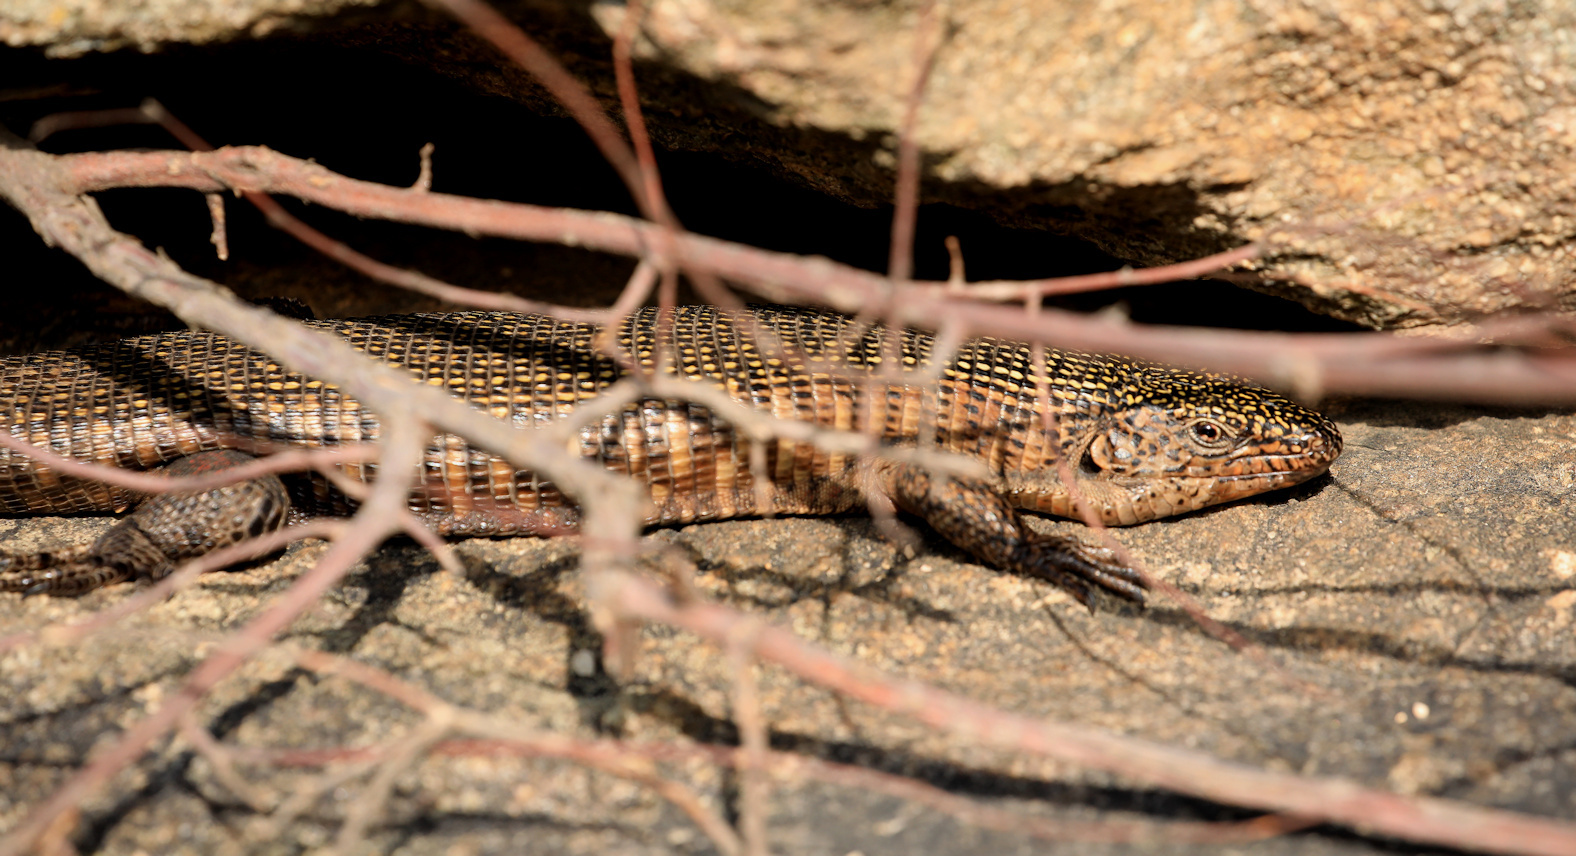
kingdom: Animalia
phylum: Chordata
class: Squamata
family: Gerrhosauridae
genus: Matobosaurus
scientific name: Matobosaurus validus
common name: Common giant plated lizard
